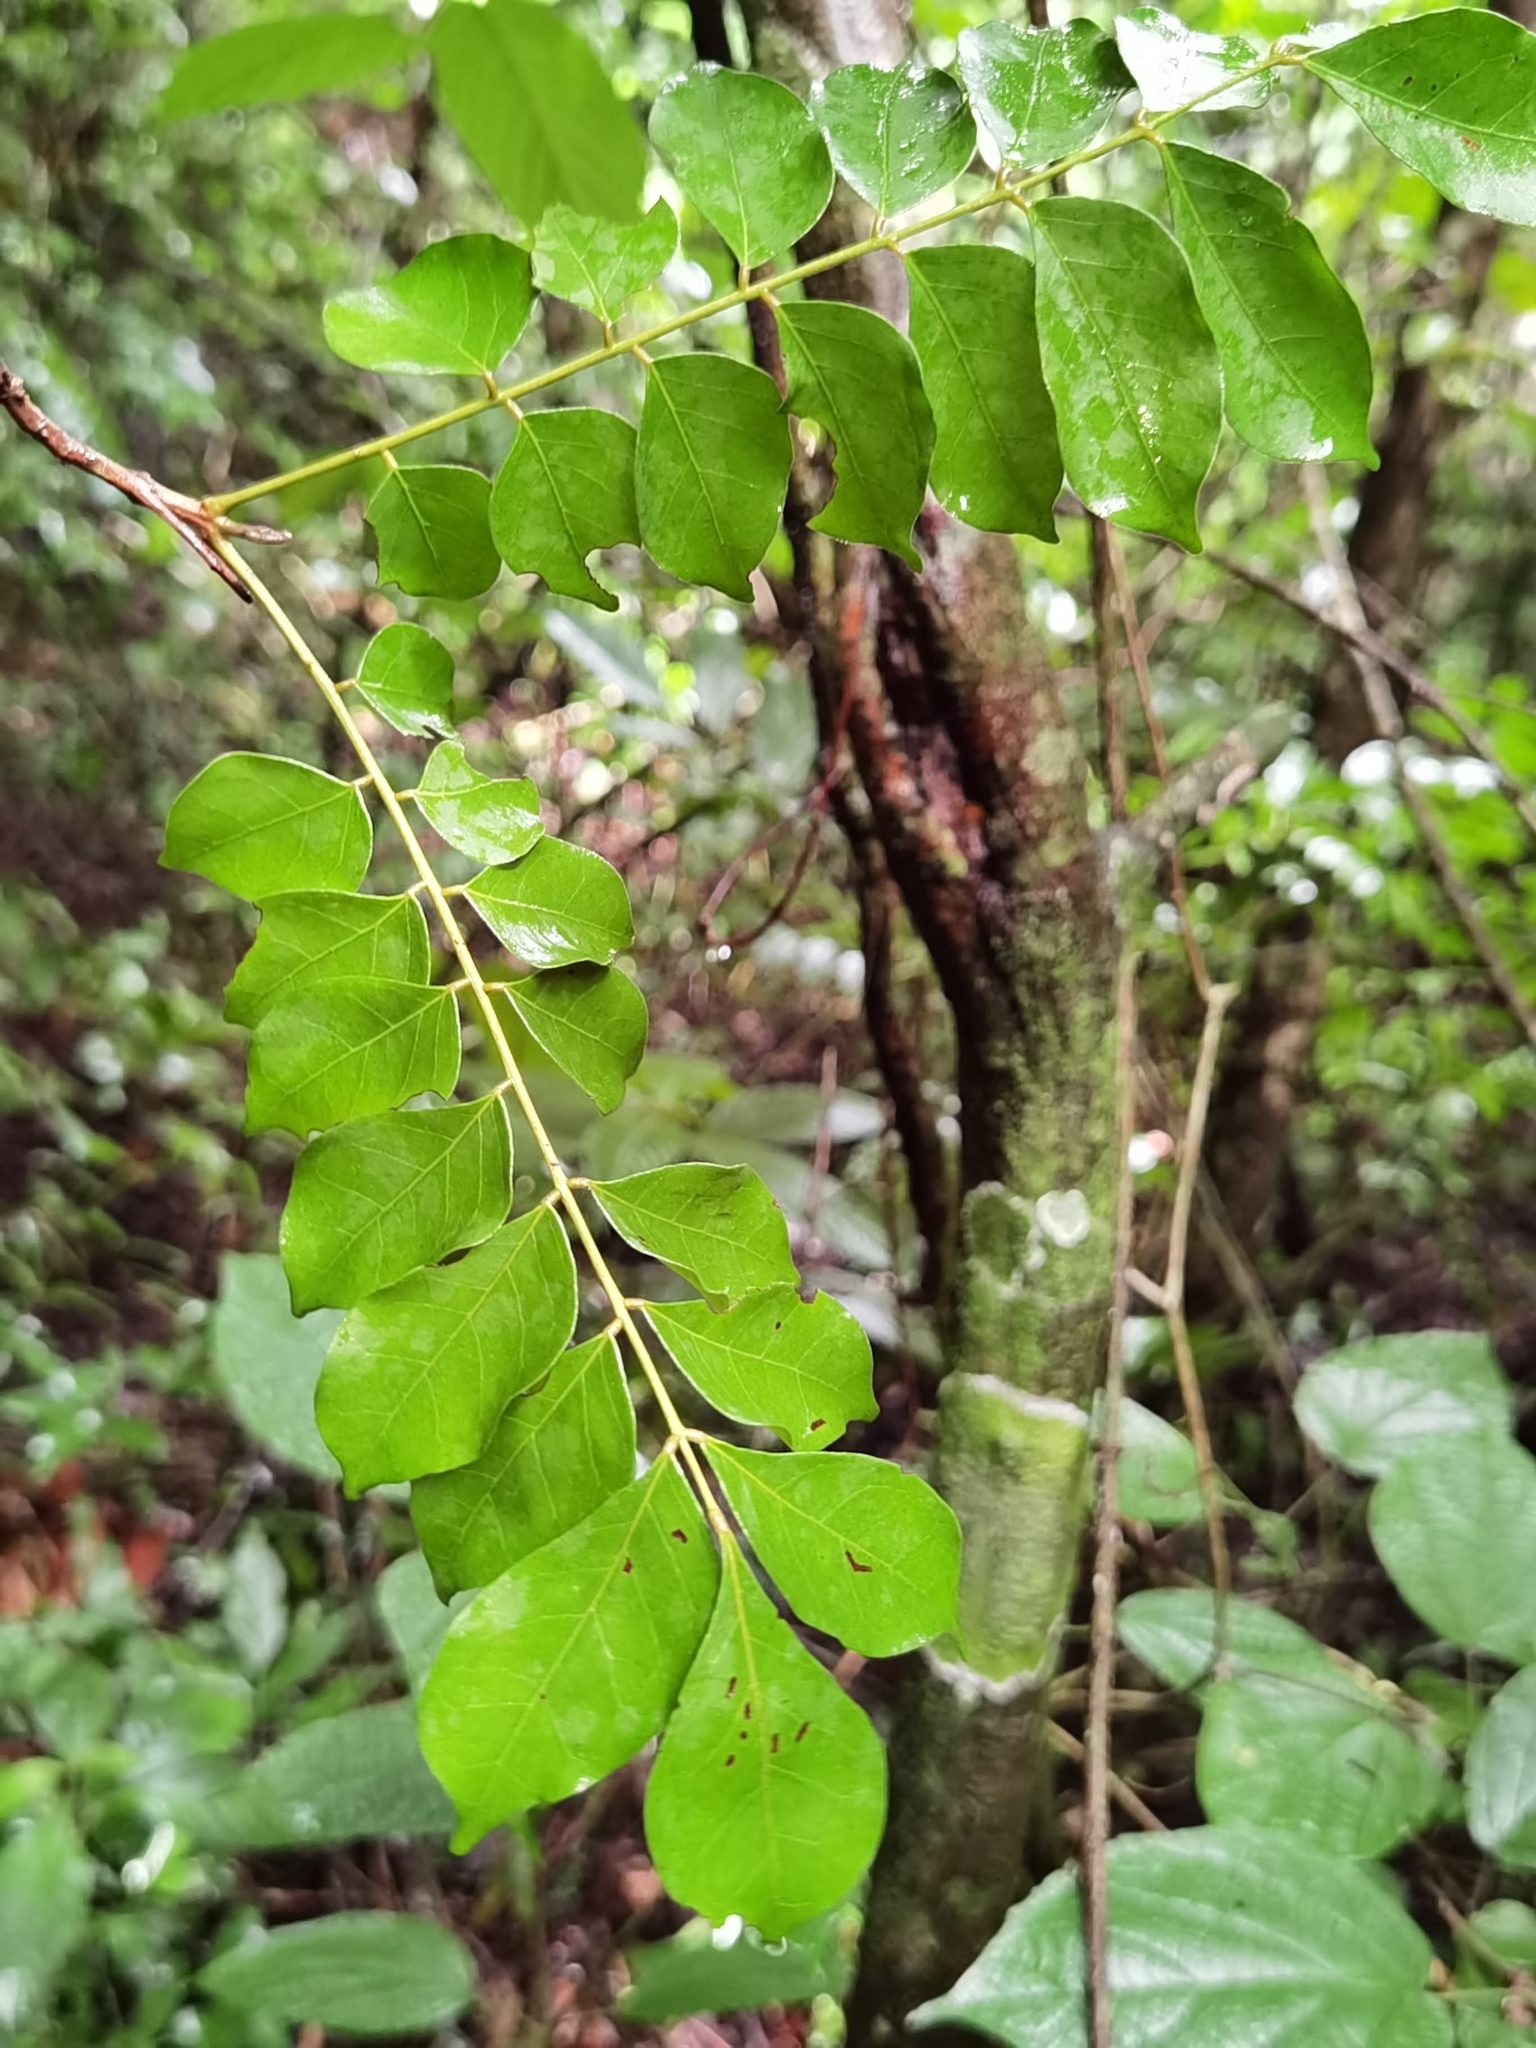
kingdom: Plantae
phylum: Tracheophyta
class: Magnoliopsida
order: Picramniales
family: Picramniaceae
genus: Picramnia
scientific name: Picramnia antidesma
